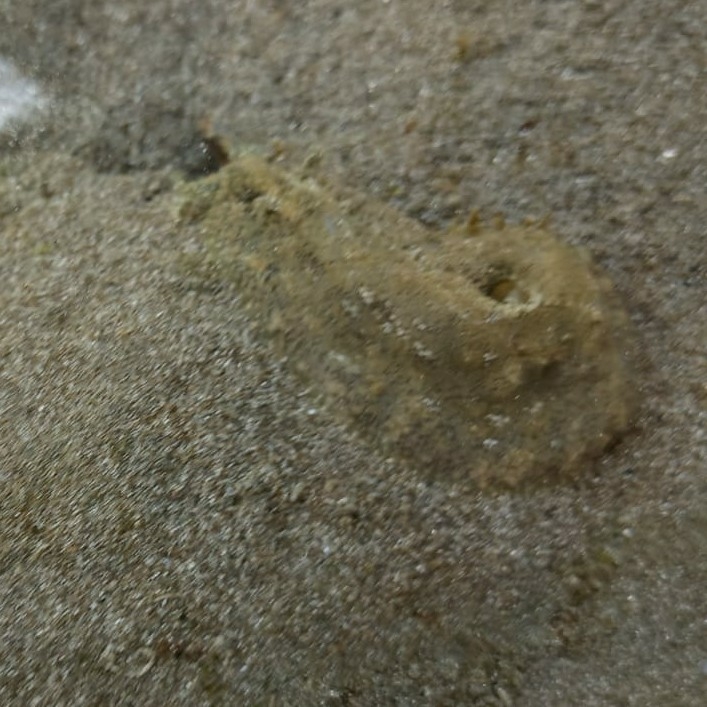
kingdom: Animalia
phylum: Mollusca
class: Gastropoda
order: Aplysiida
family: Aplysiidae
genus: Dolabrifera
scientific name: Dolabrifera nicaraguana
